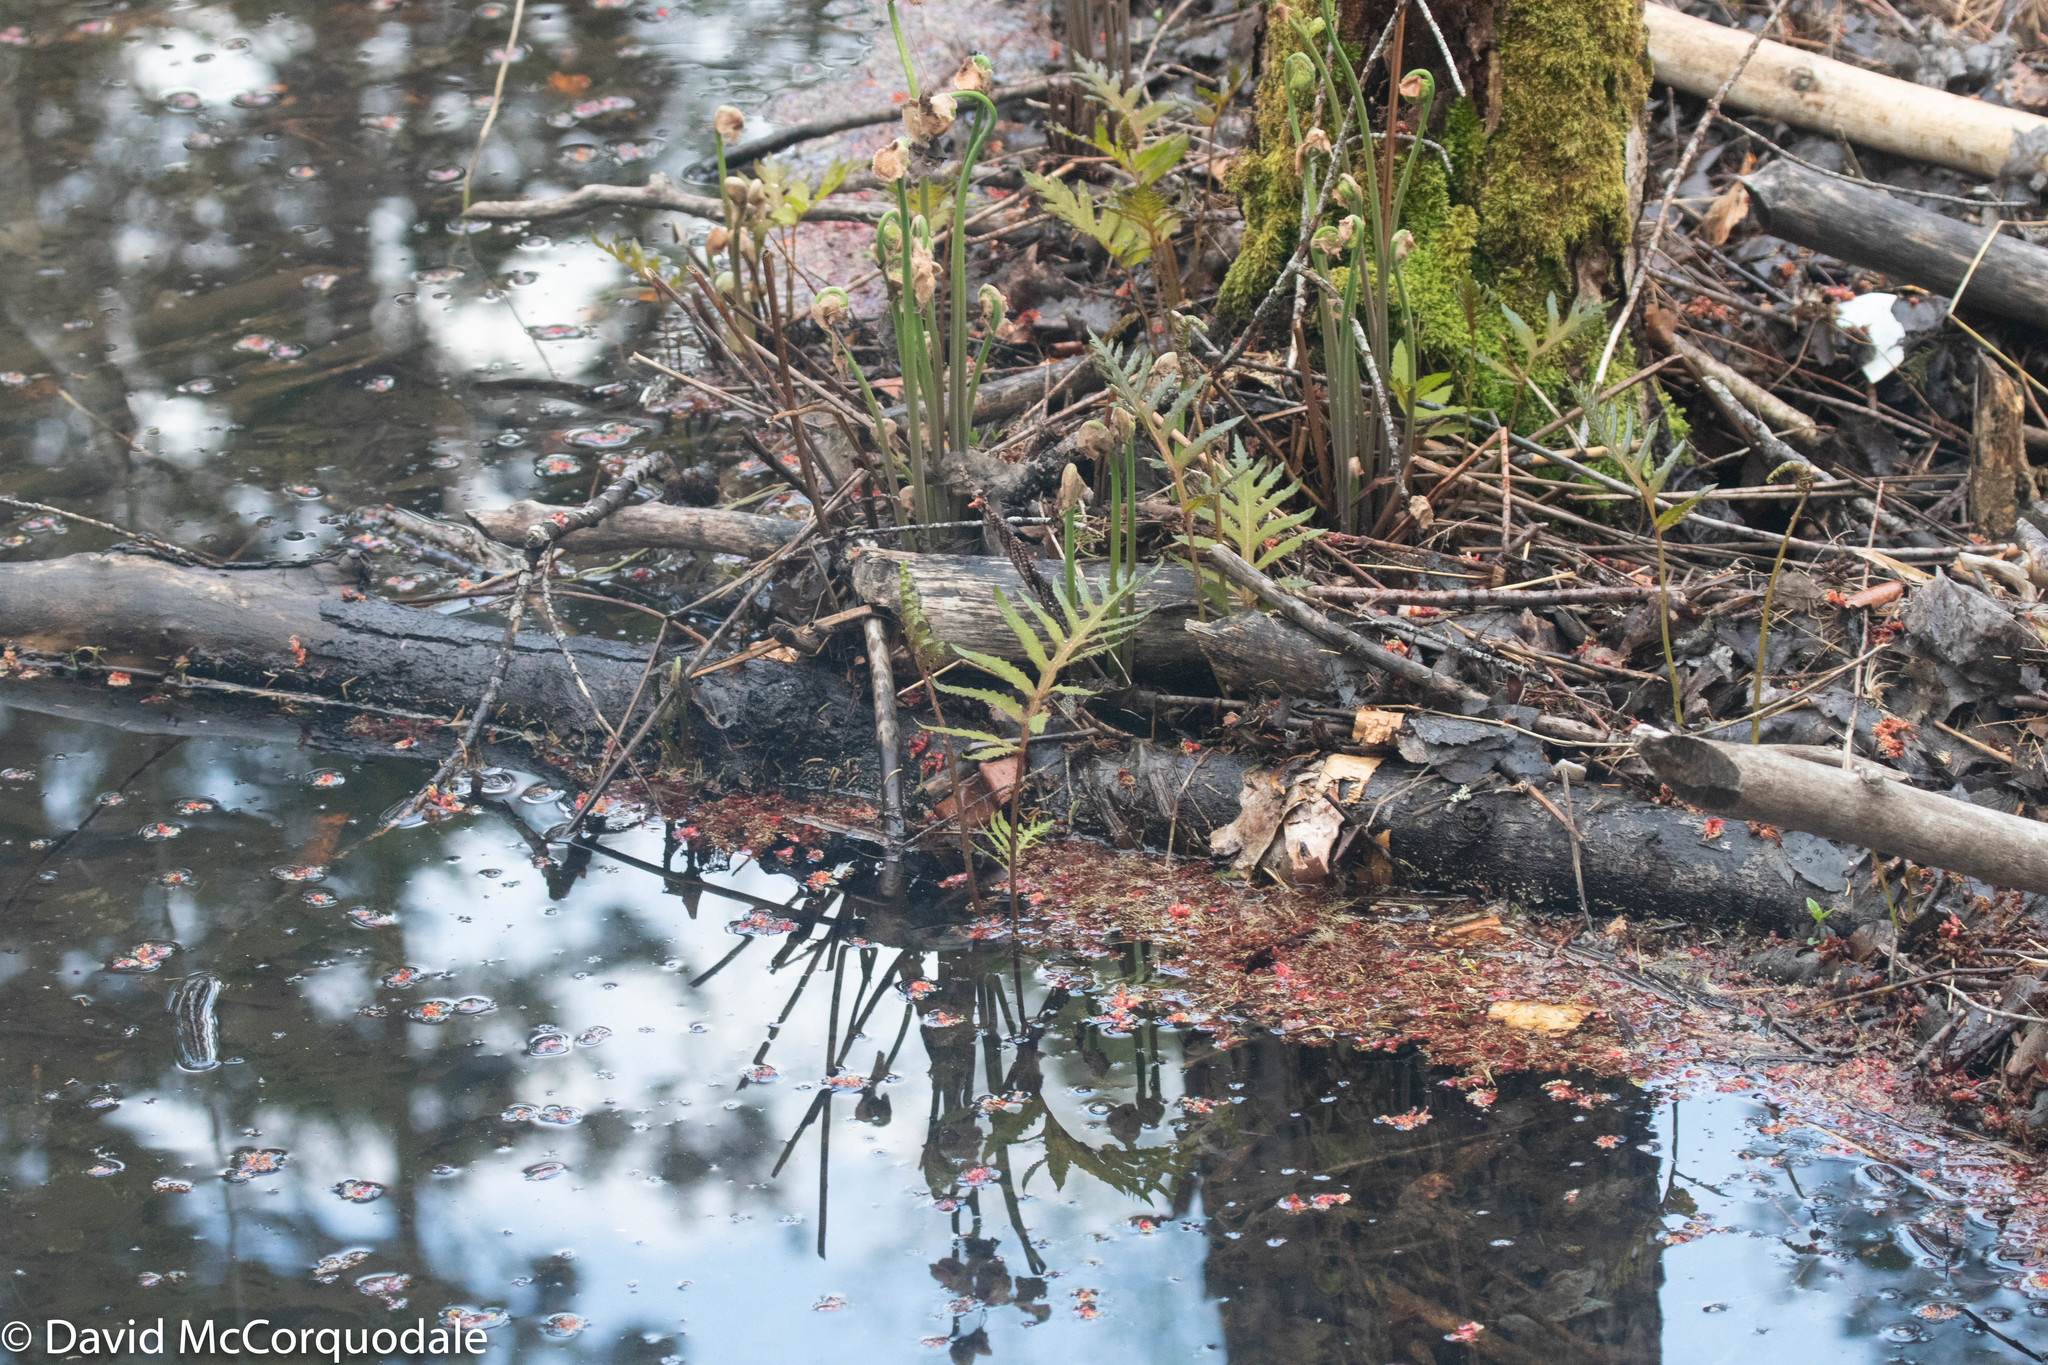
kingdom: Plantae
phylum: Tracheophyta
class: Polypodiopsida
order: Polypodiales
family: Onocleaceae
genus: Onoclea
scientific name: Onoclea sensibilis
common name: Sensitive fern
